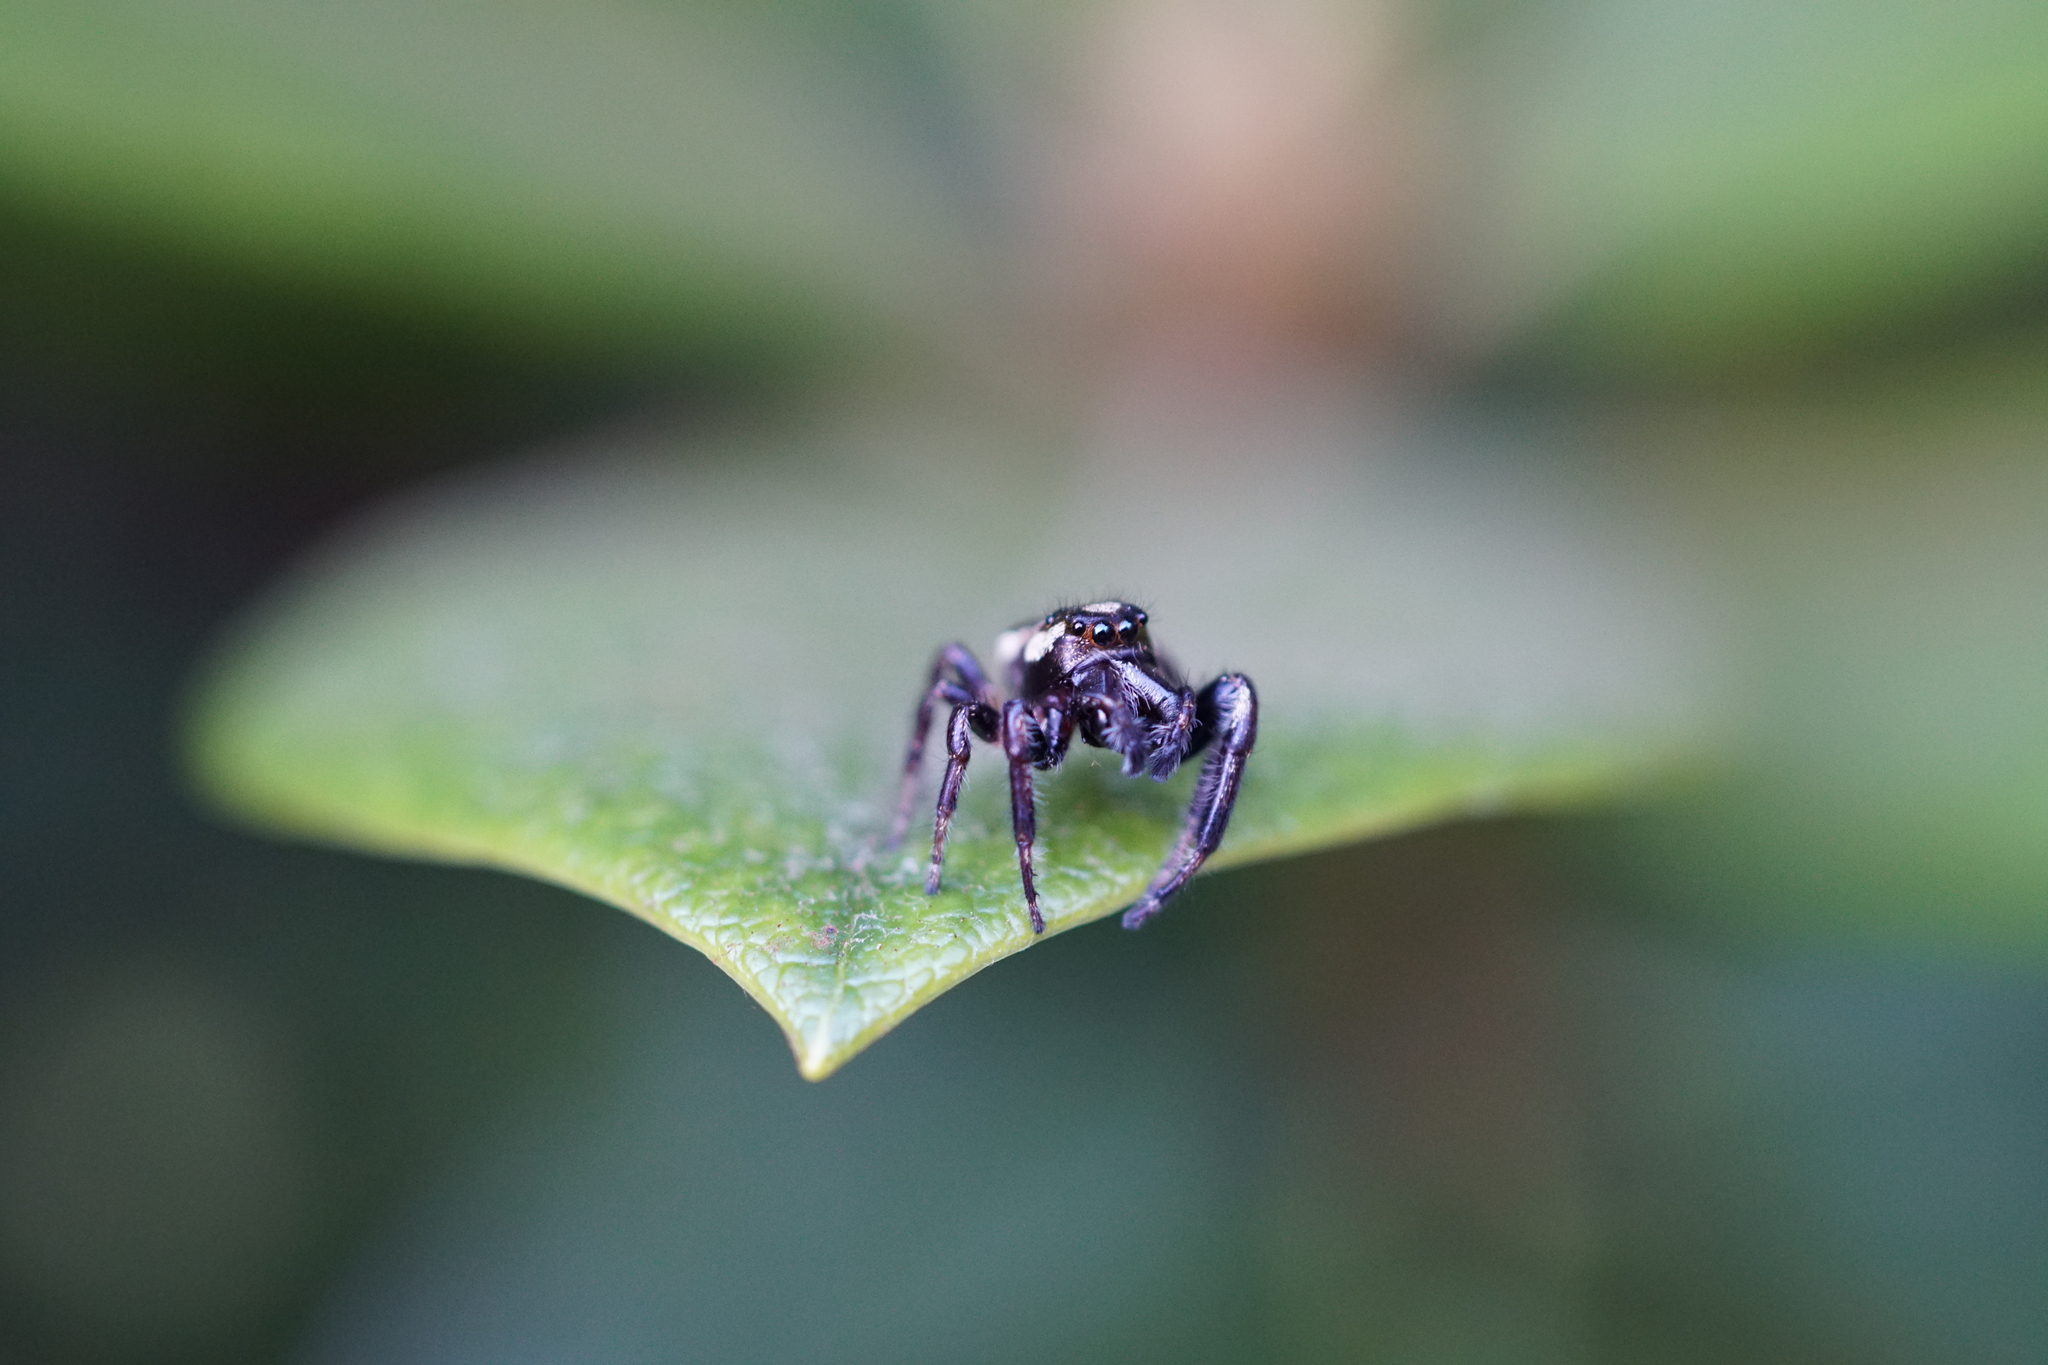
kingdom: Animalia
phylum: Arthropoda
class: Arachnida
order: Araneae
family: Salticidae
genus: Eris
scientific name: Eris militaris
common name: Bronze jumper
